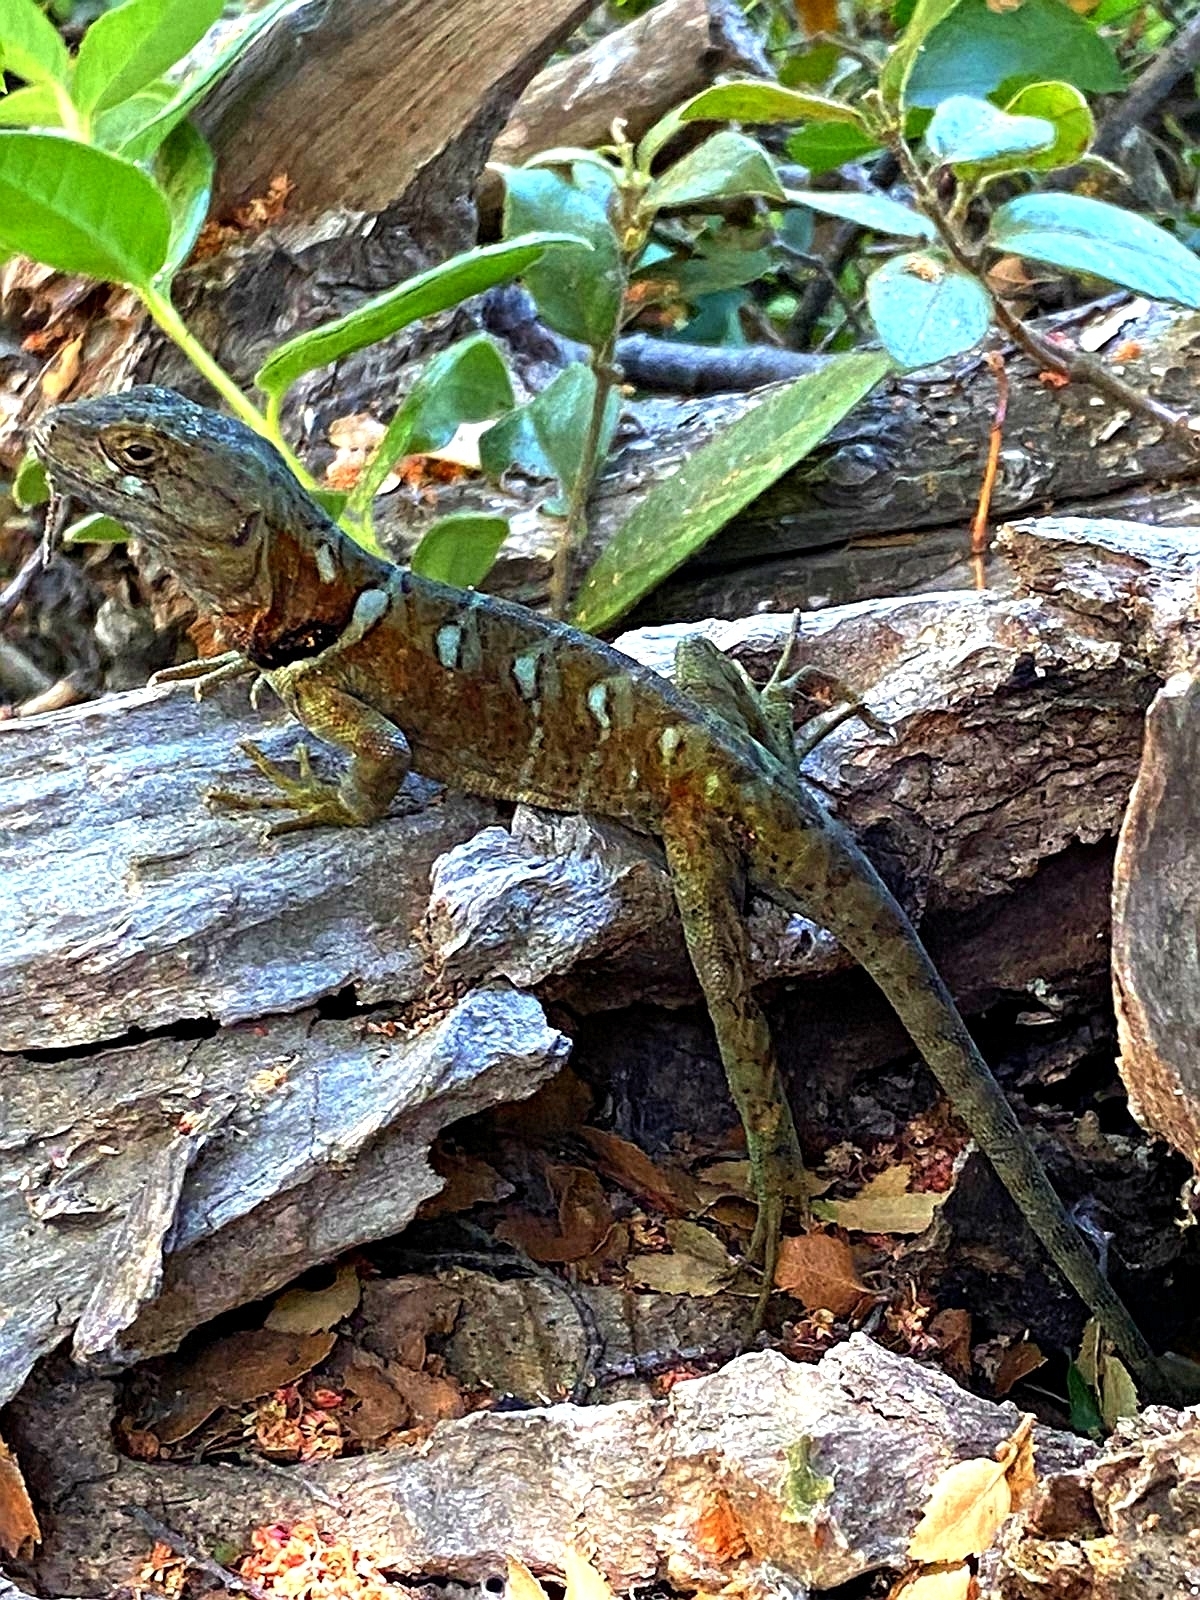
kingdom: Animalia
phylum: Chordata
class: Squamata
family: Leiosauridae
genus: Pristidactylus
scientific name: Pristidactylus torquatus
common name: Southern grumbler
